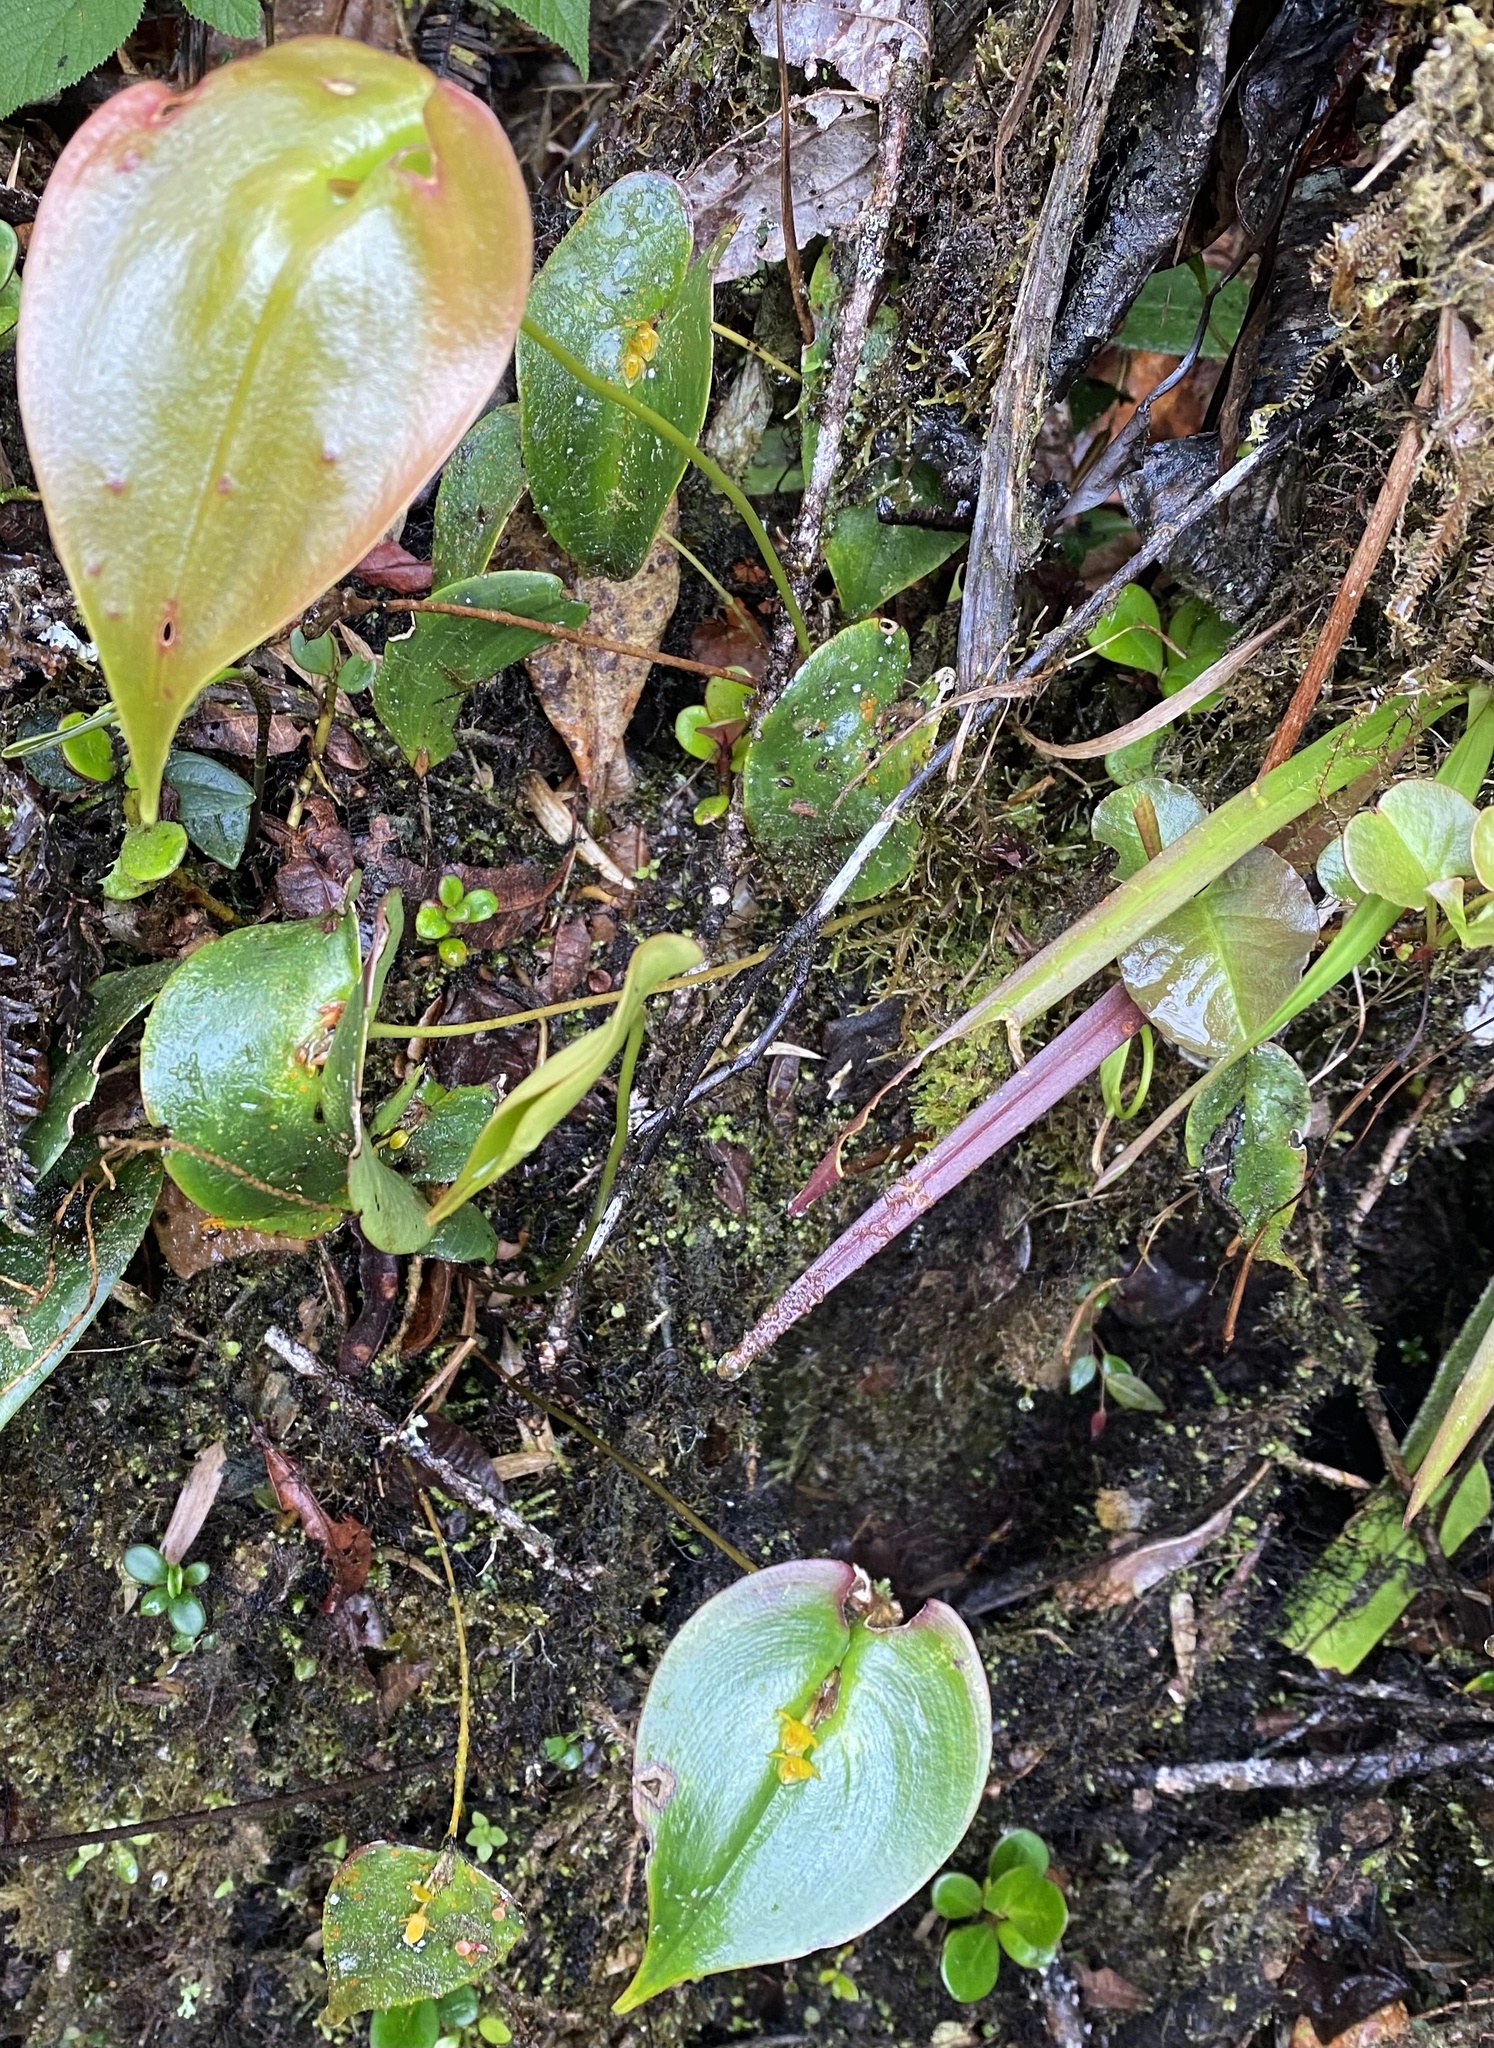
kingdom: Plantae
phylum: Tracheophyta
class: Liliopsida
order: Asparagales
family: Orchidaceae
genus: Pleurothallis
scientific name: Pleurothallis cordata
